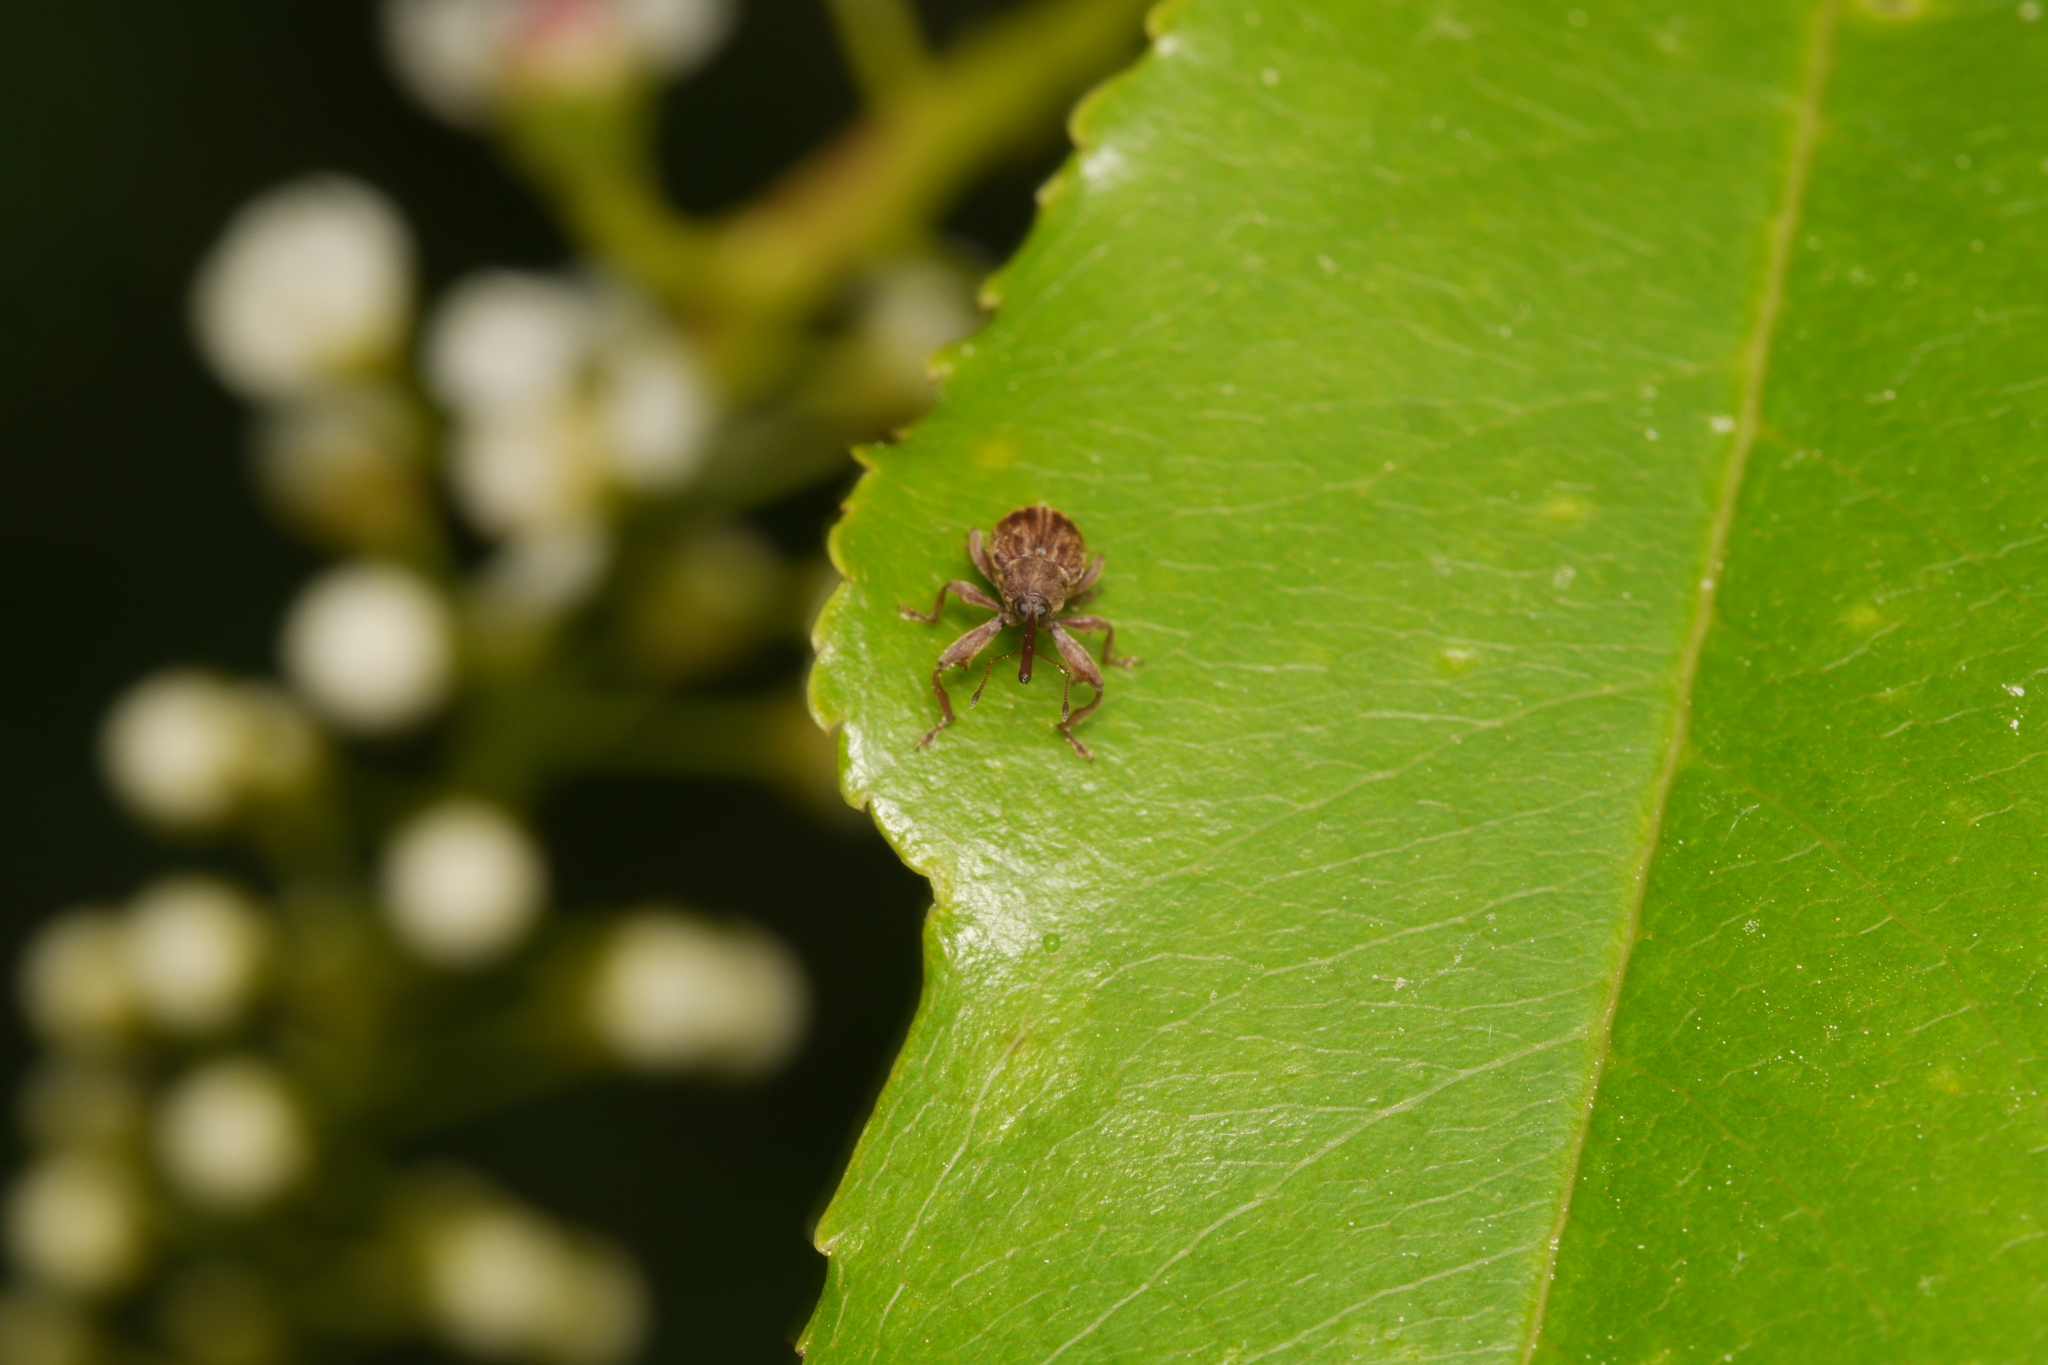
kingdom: Animalia
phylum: Arthropoda
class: Insecta
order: Coleoptera
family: Curculionidae
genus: Anthonomus
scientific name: Anthonomus rectirostris
